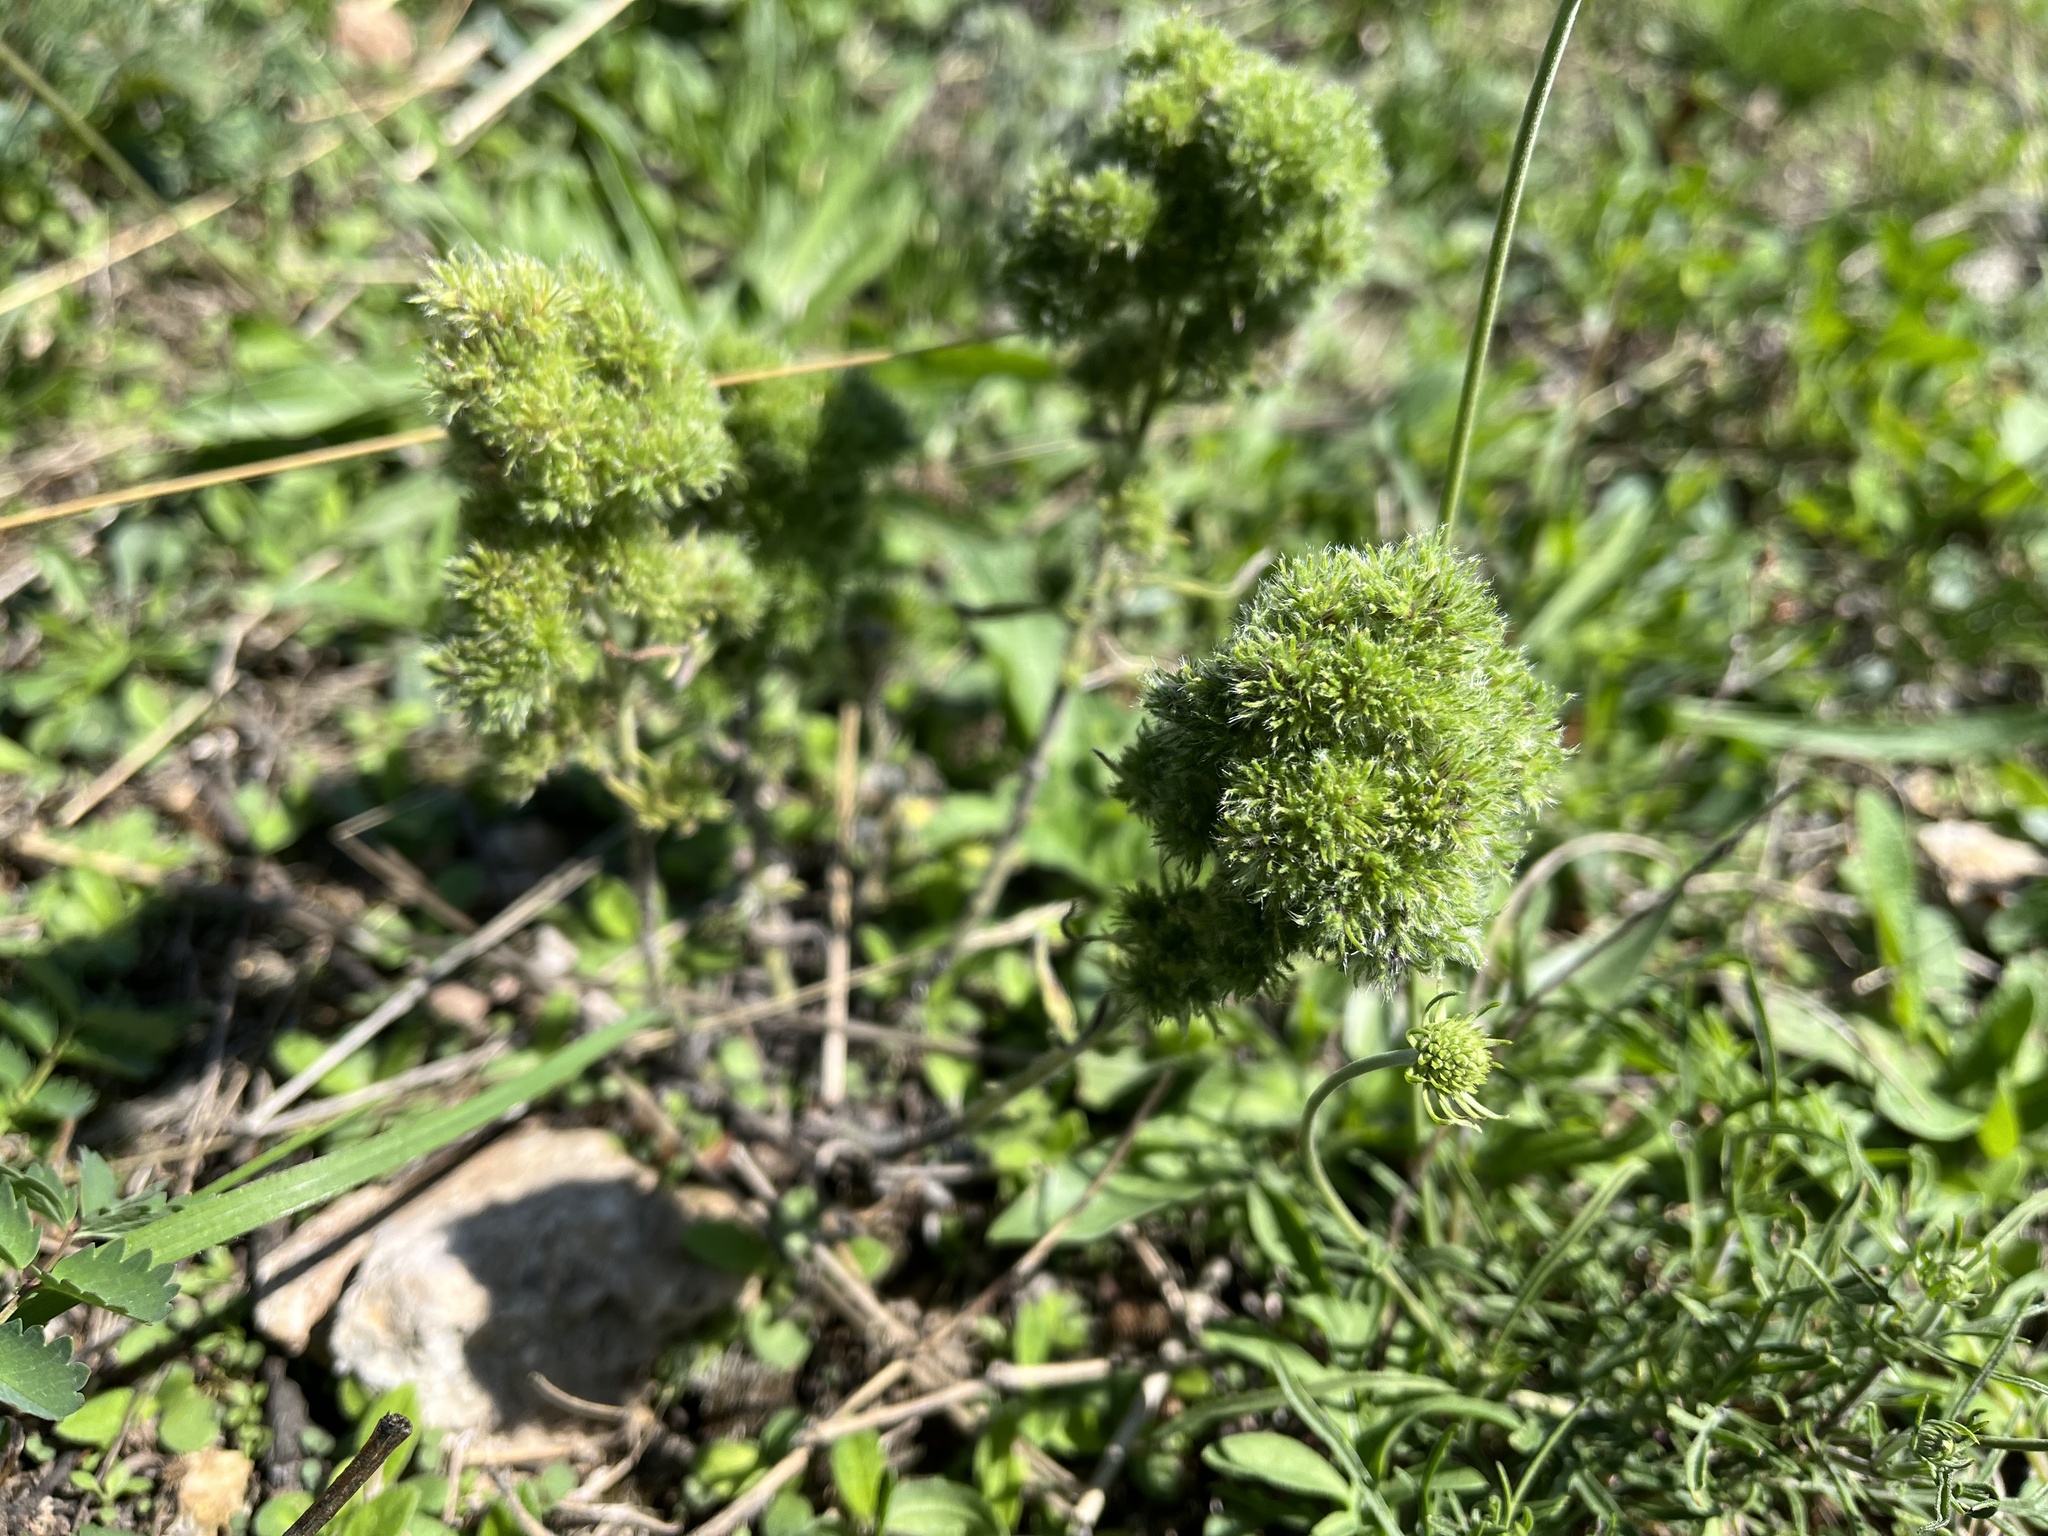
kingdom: Animalia
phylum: Arthropoda
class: Arachnida
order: Trombidiformes
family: Eriophyidae
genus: Aceria
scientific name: Aceria echii
